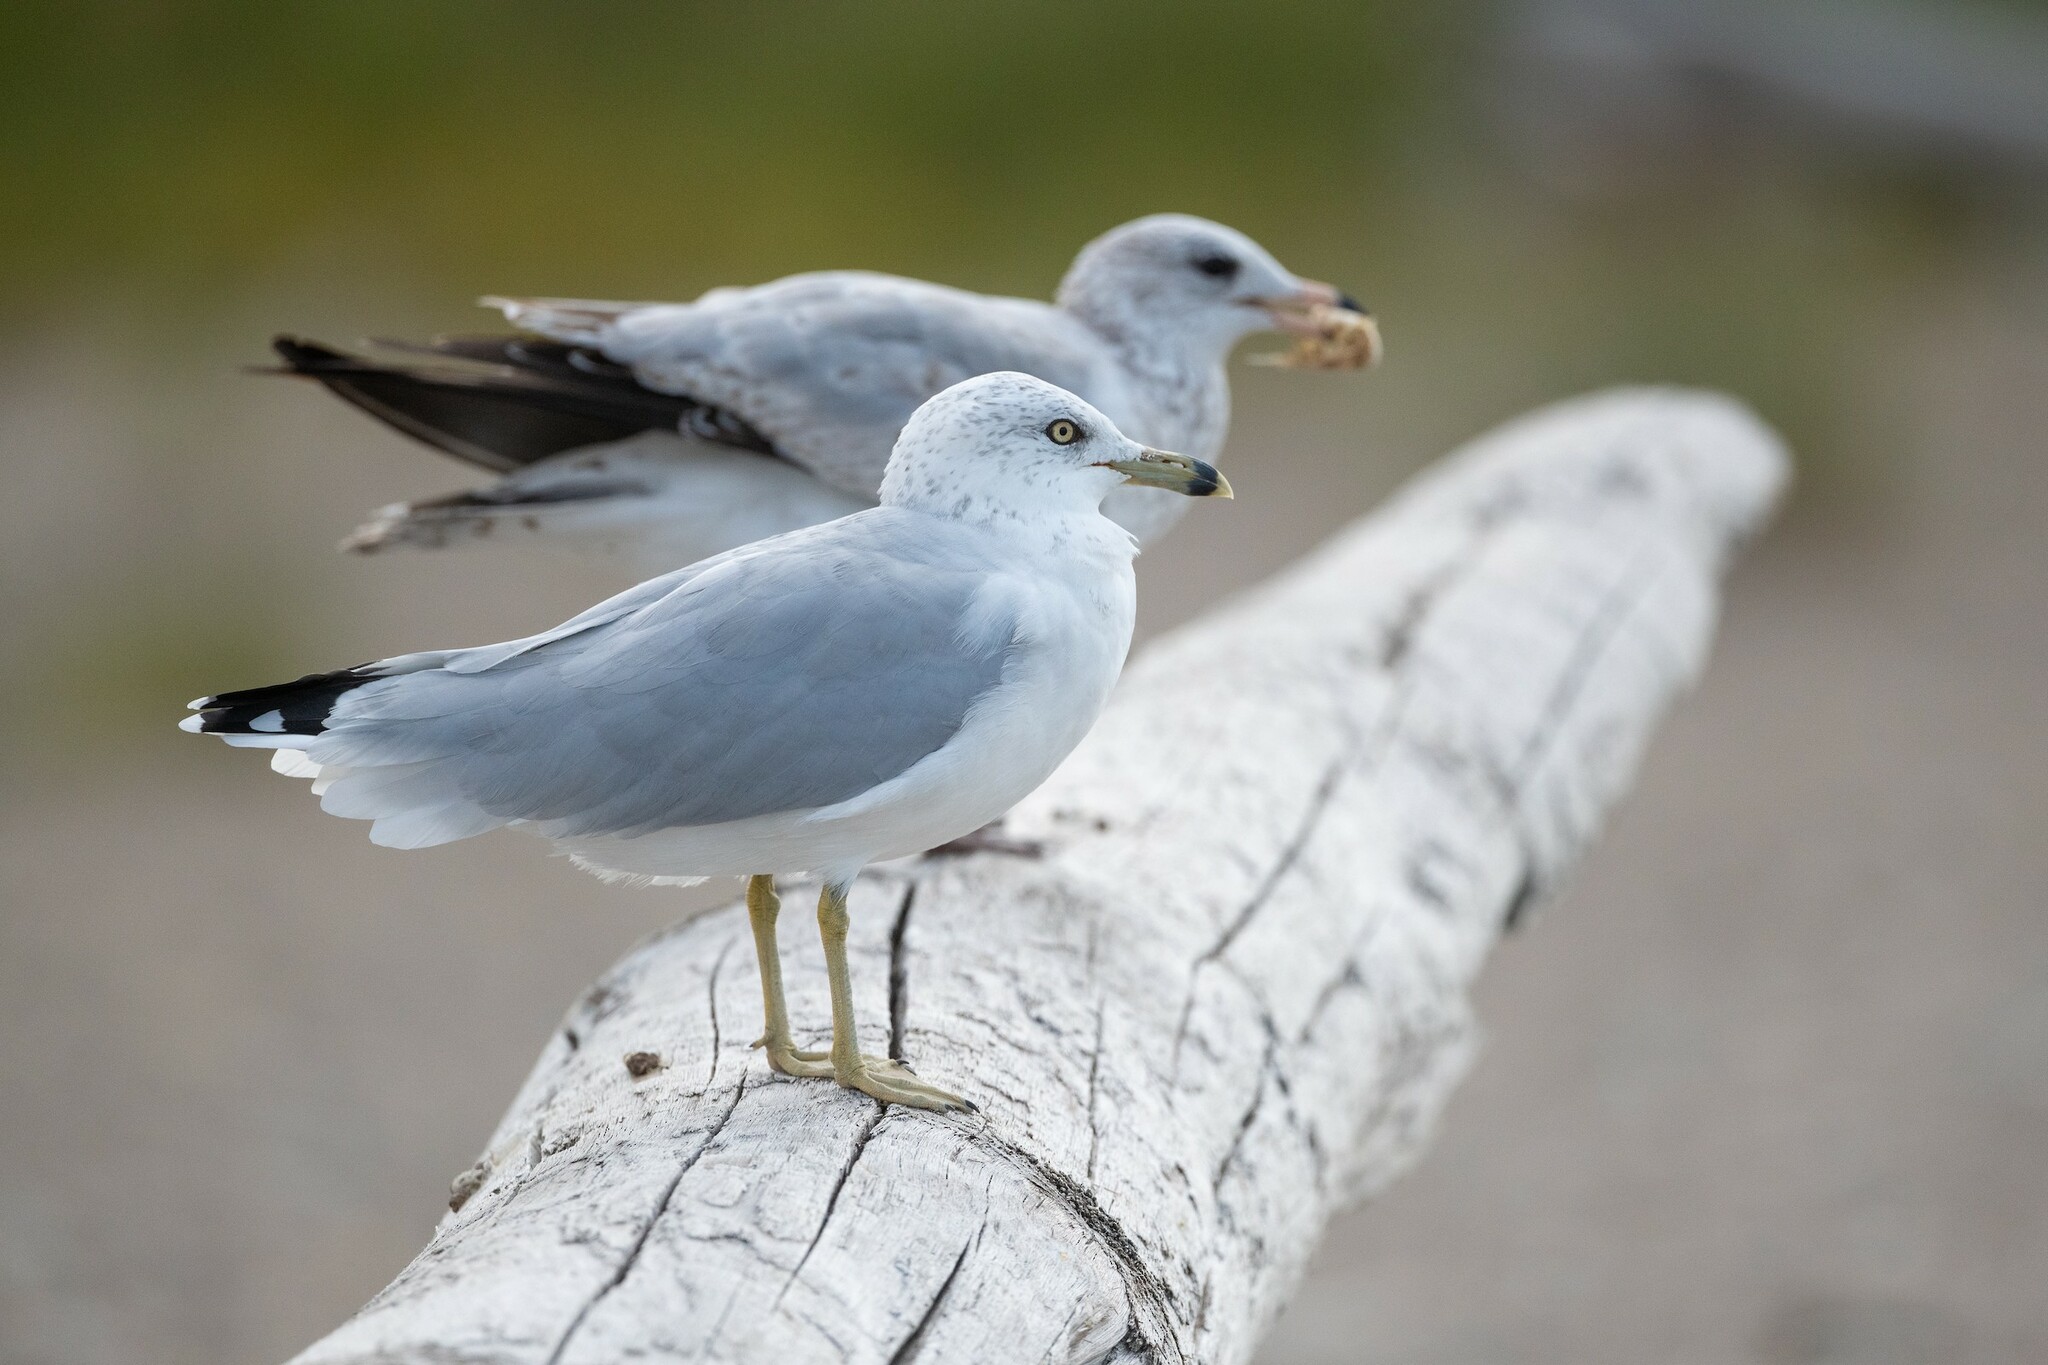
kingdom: Animalia
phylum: Chordata
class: Aves
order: Charadriiformes
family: Laridae
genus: Larus
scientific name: Larus delawarensis
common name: Ring-billed gull
